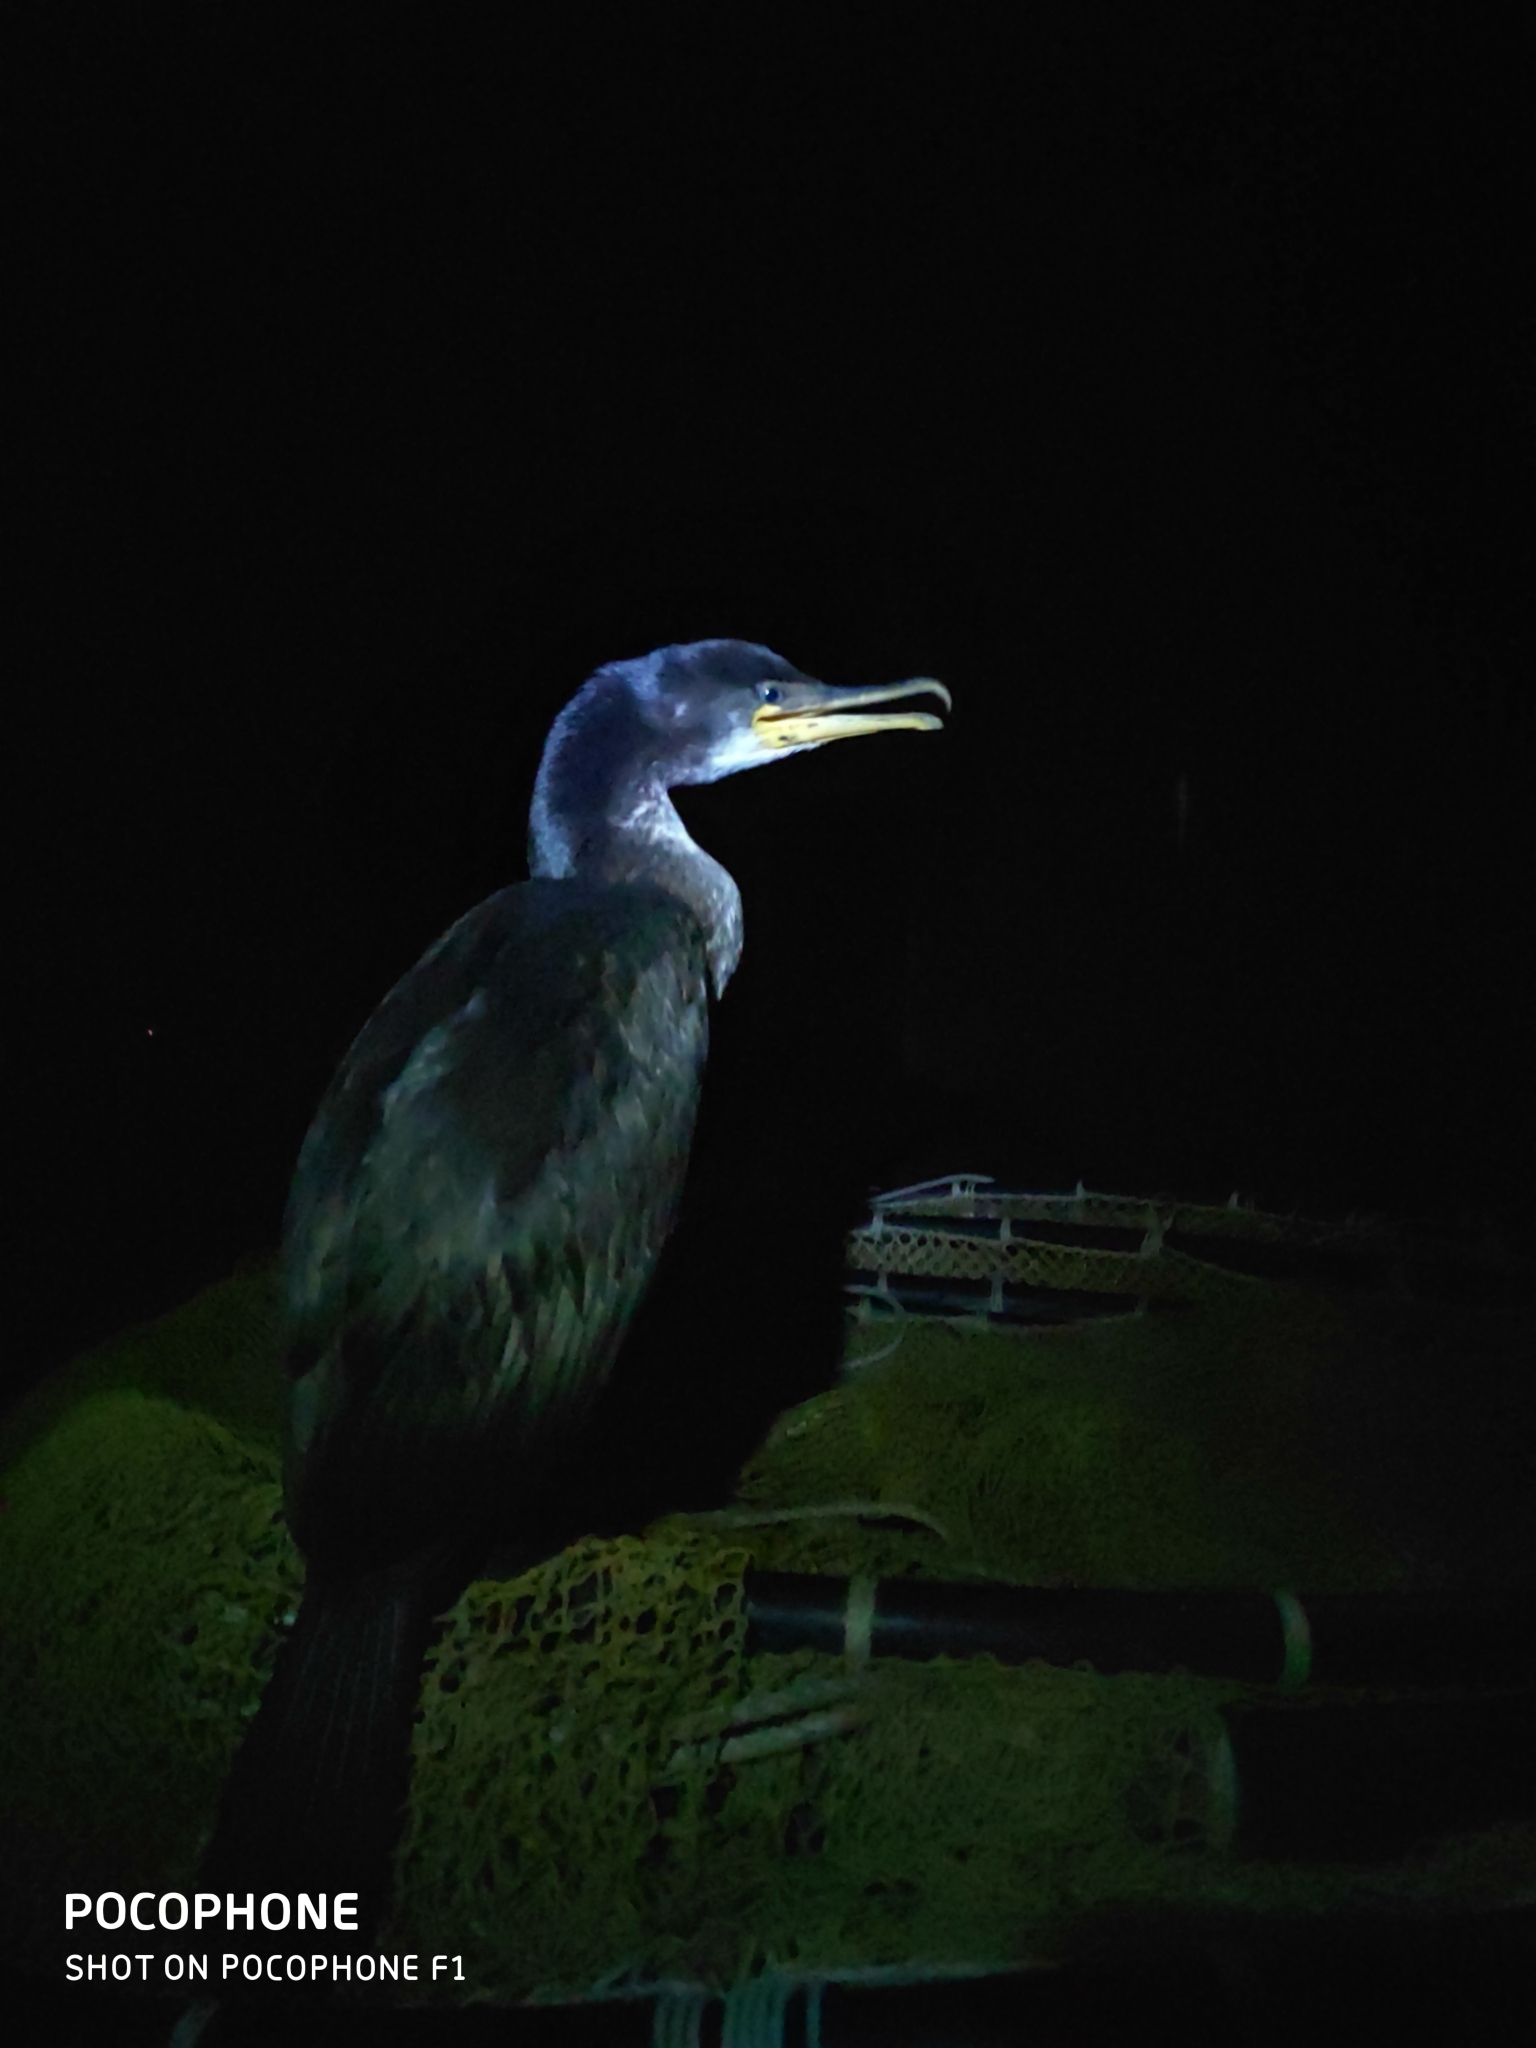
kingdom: Animalia
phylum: Chordata
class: Aves
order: Suliformes
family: Phalacrocoracidae
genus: Phalacrocorax
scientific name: Phalacrocorax capillatus
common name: Japanese cormorant
